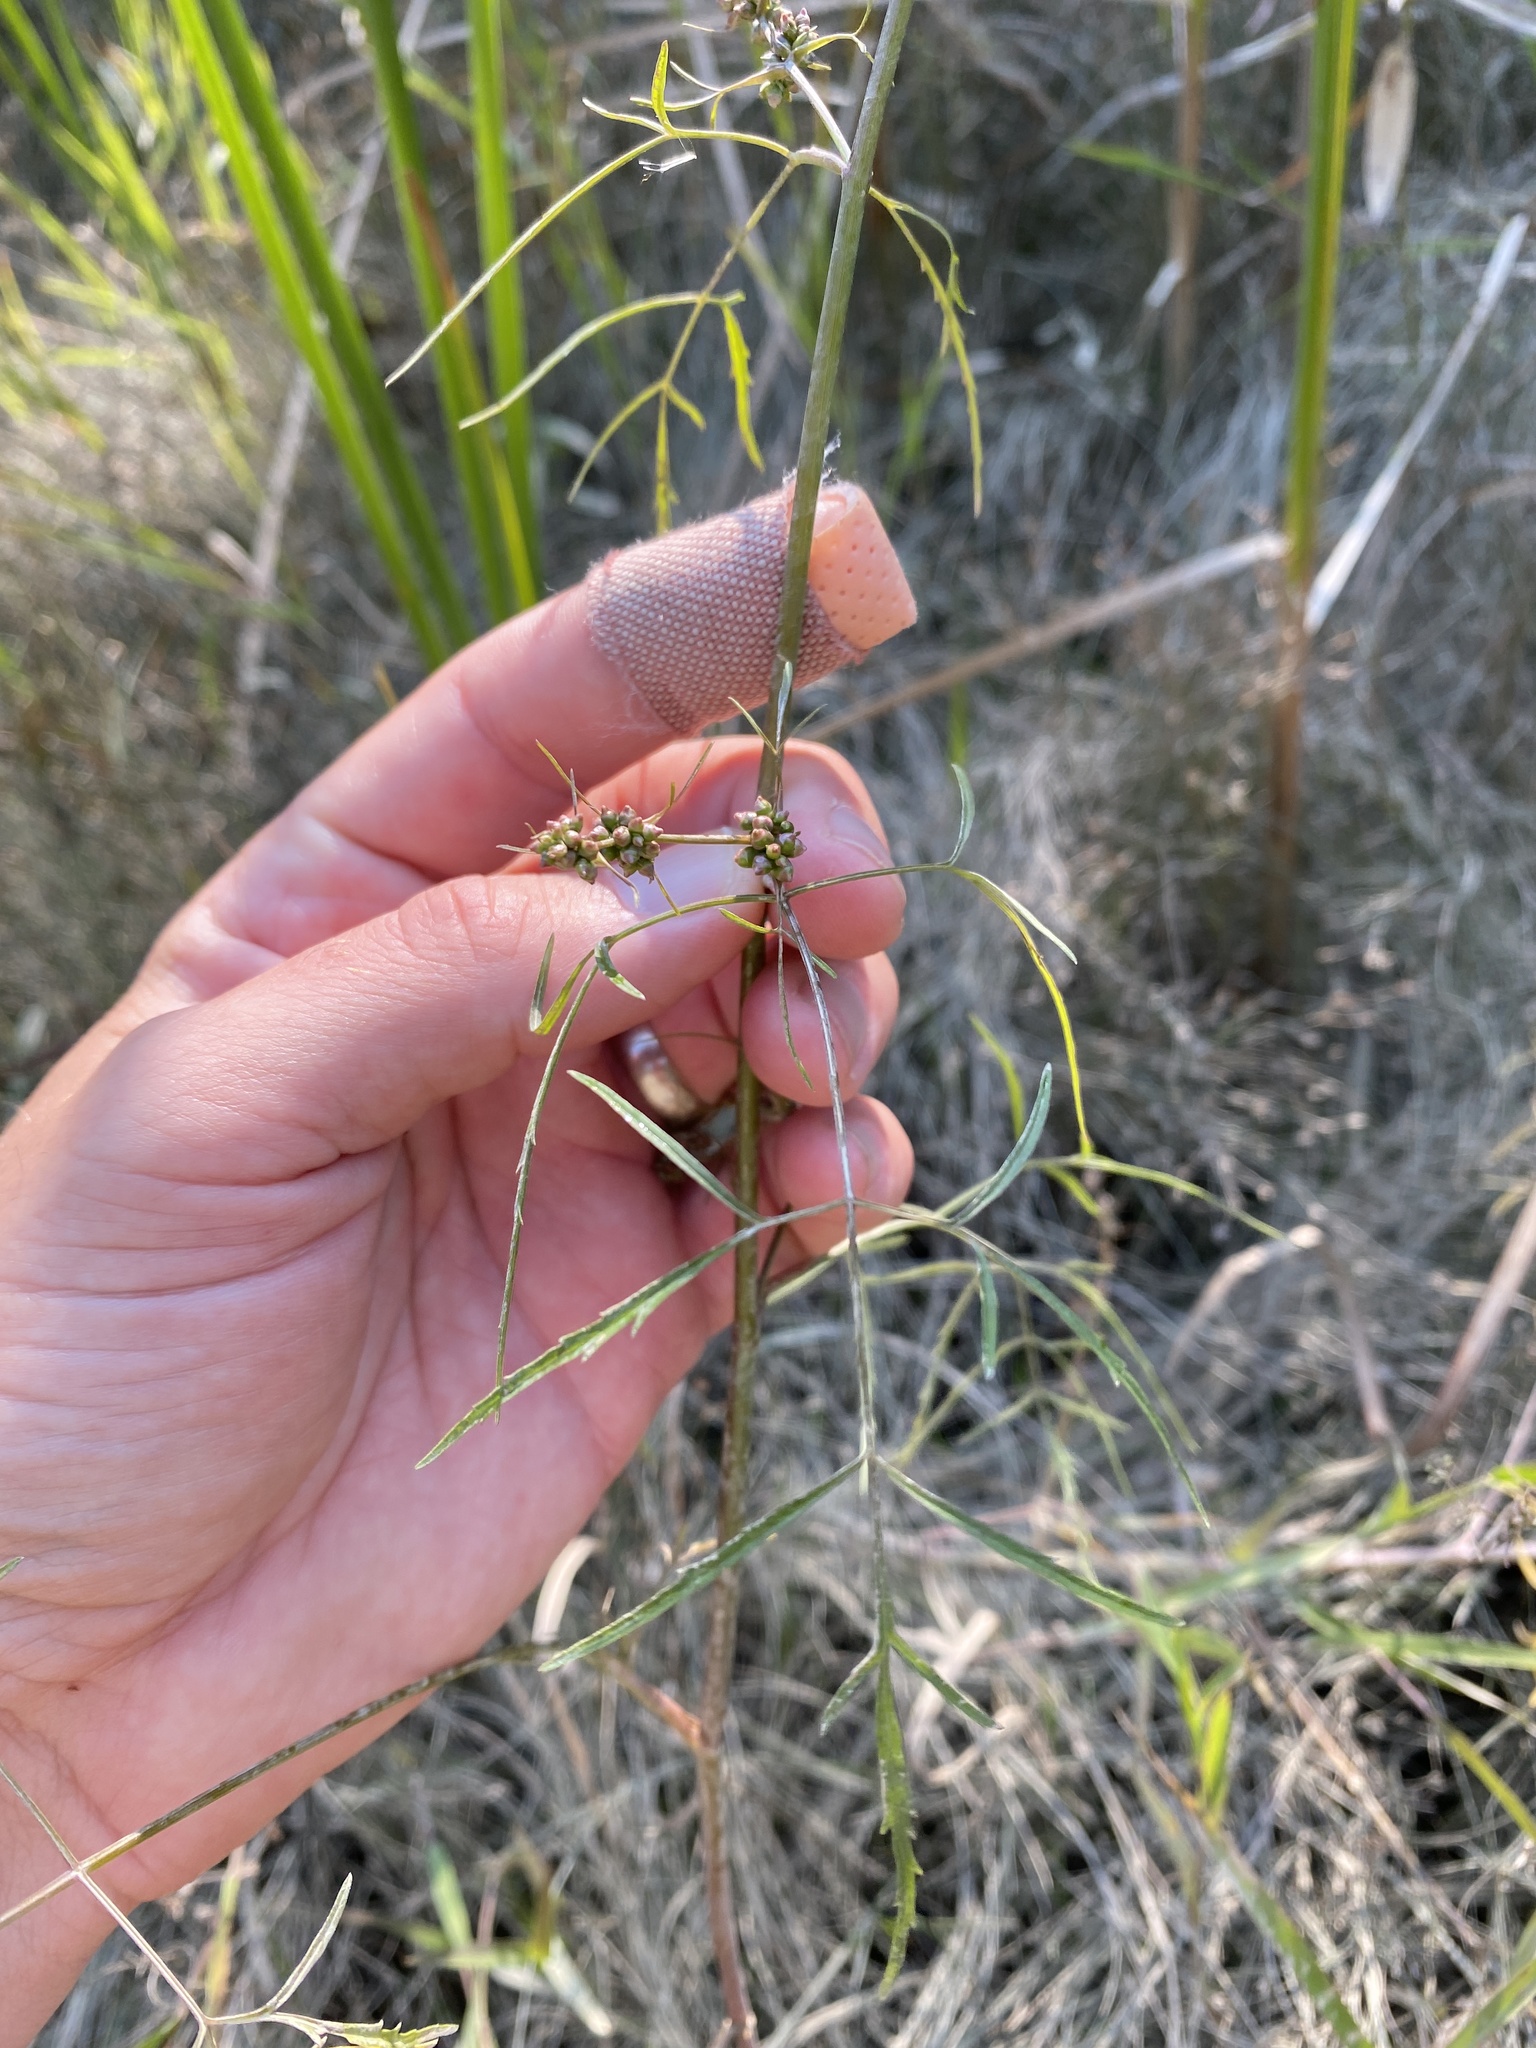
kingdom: Plantae
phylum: Tracheophyta
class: Magnoliopsida
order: Apiales
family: Apiaceae
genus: Cicuta
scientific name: Cicuta bulbifera
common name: Bulb-bearing water-hemlock
